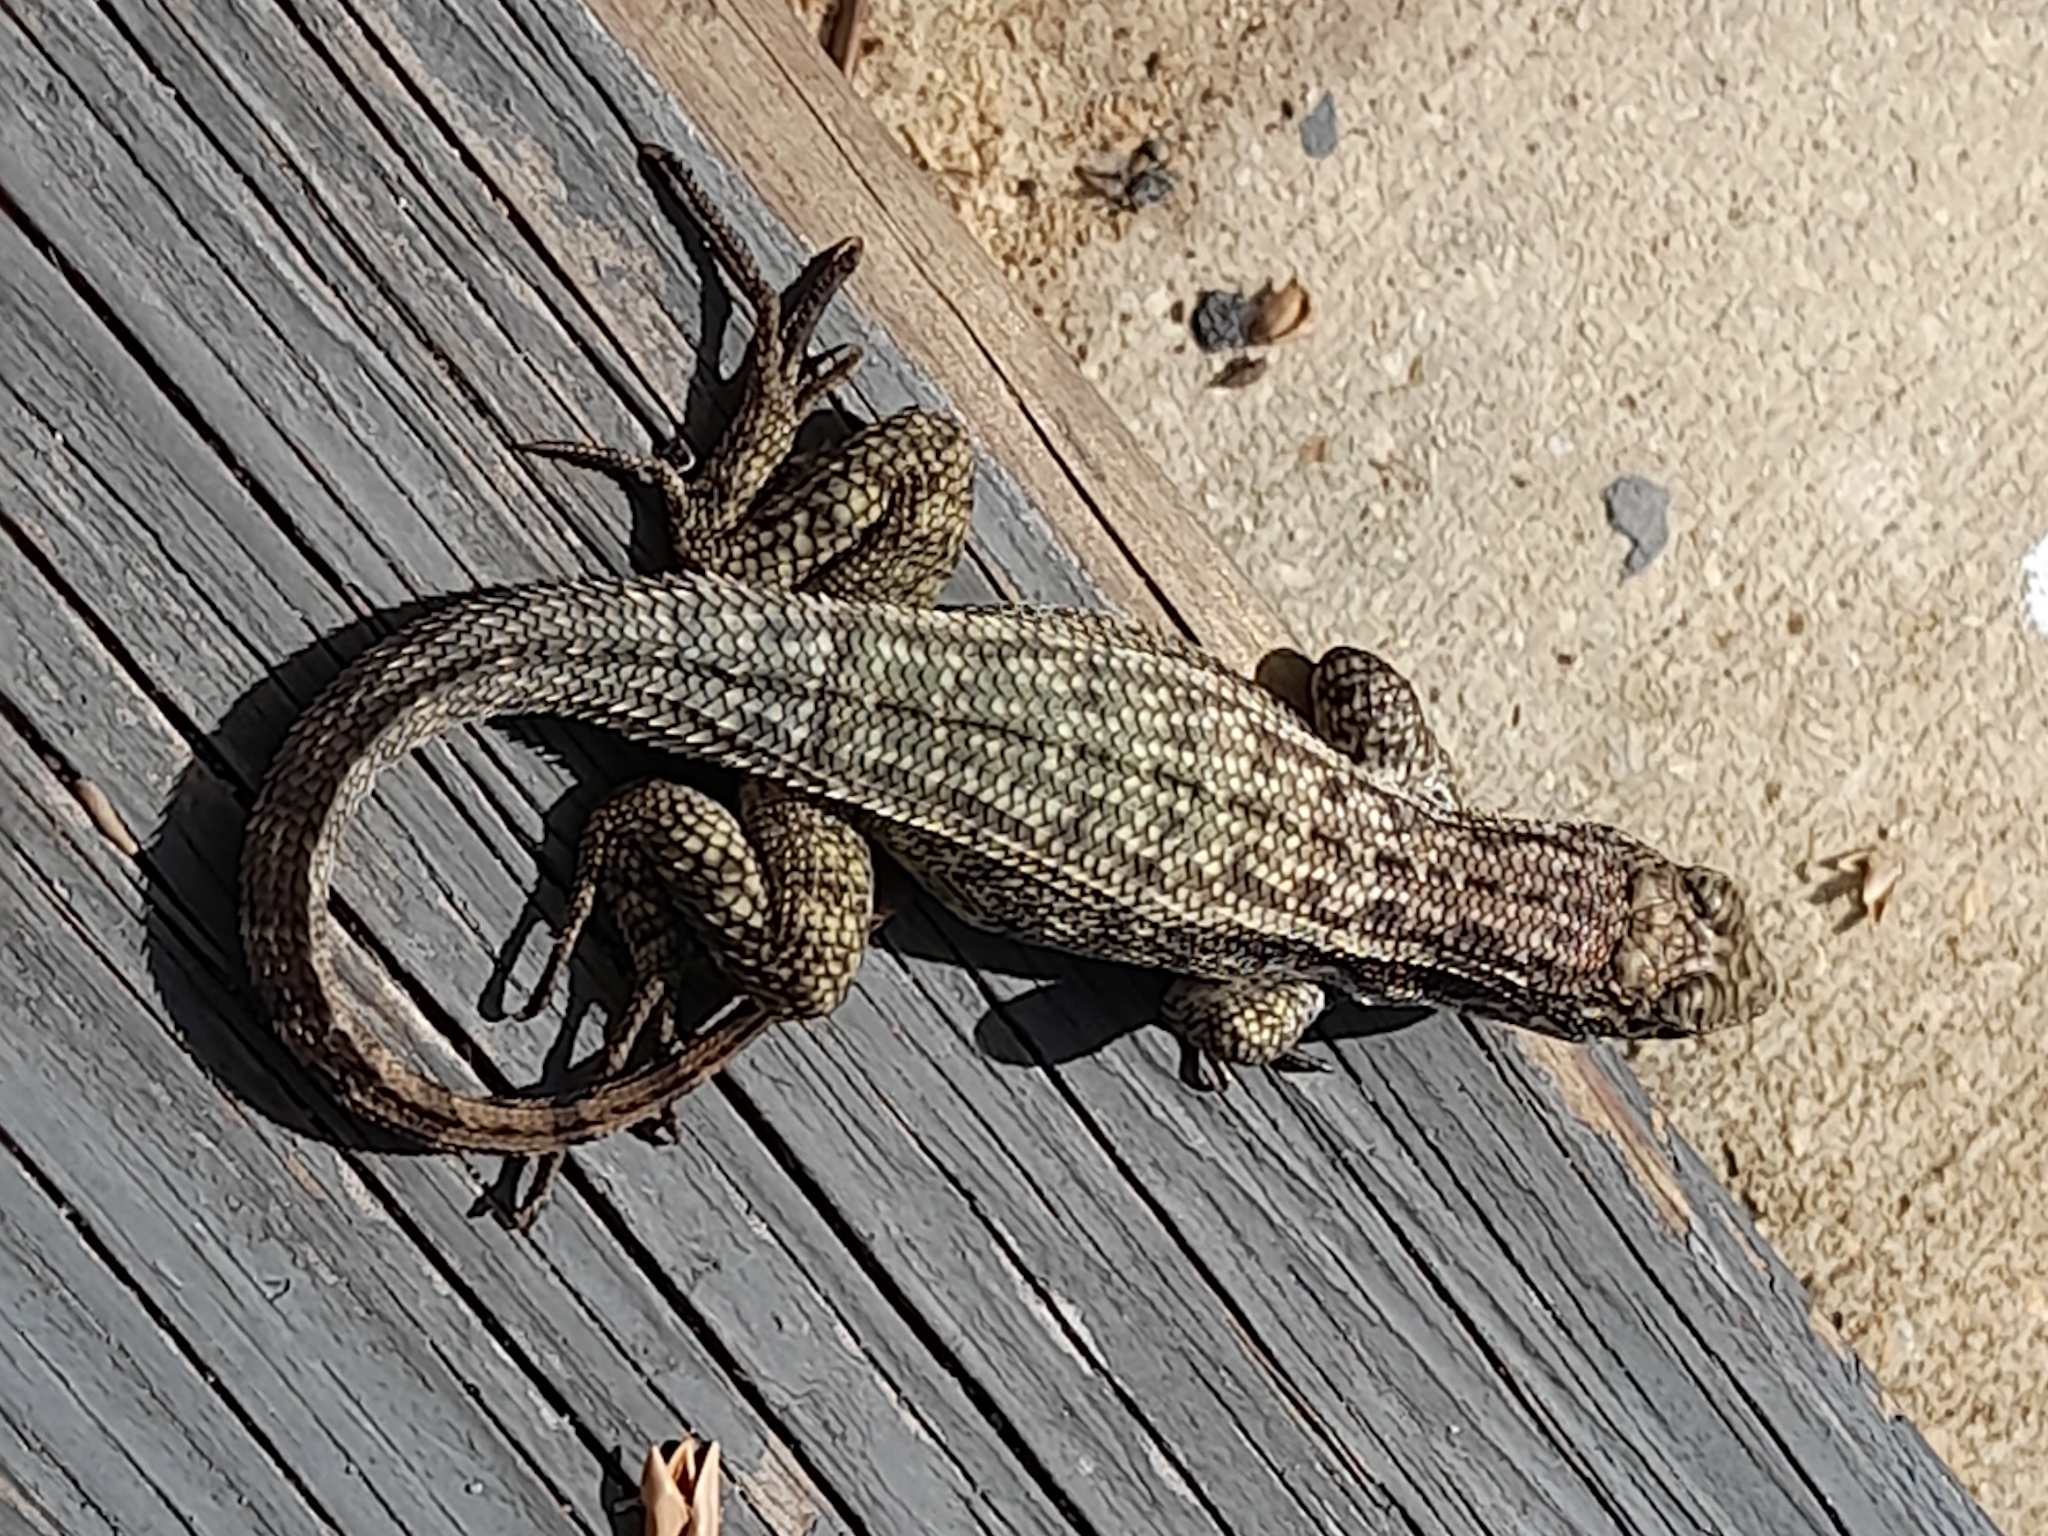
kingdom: Animalia
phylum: Chordata
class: Squamata
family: Leiocephalidae
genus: Leiocephalus
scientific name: Leiocephalus varius
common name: Cayman curlytail
